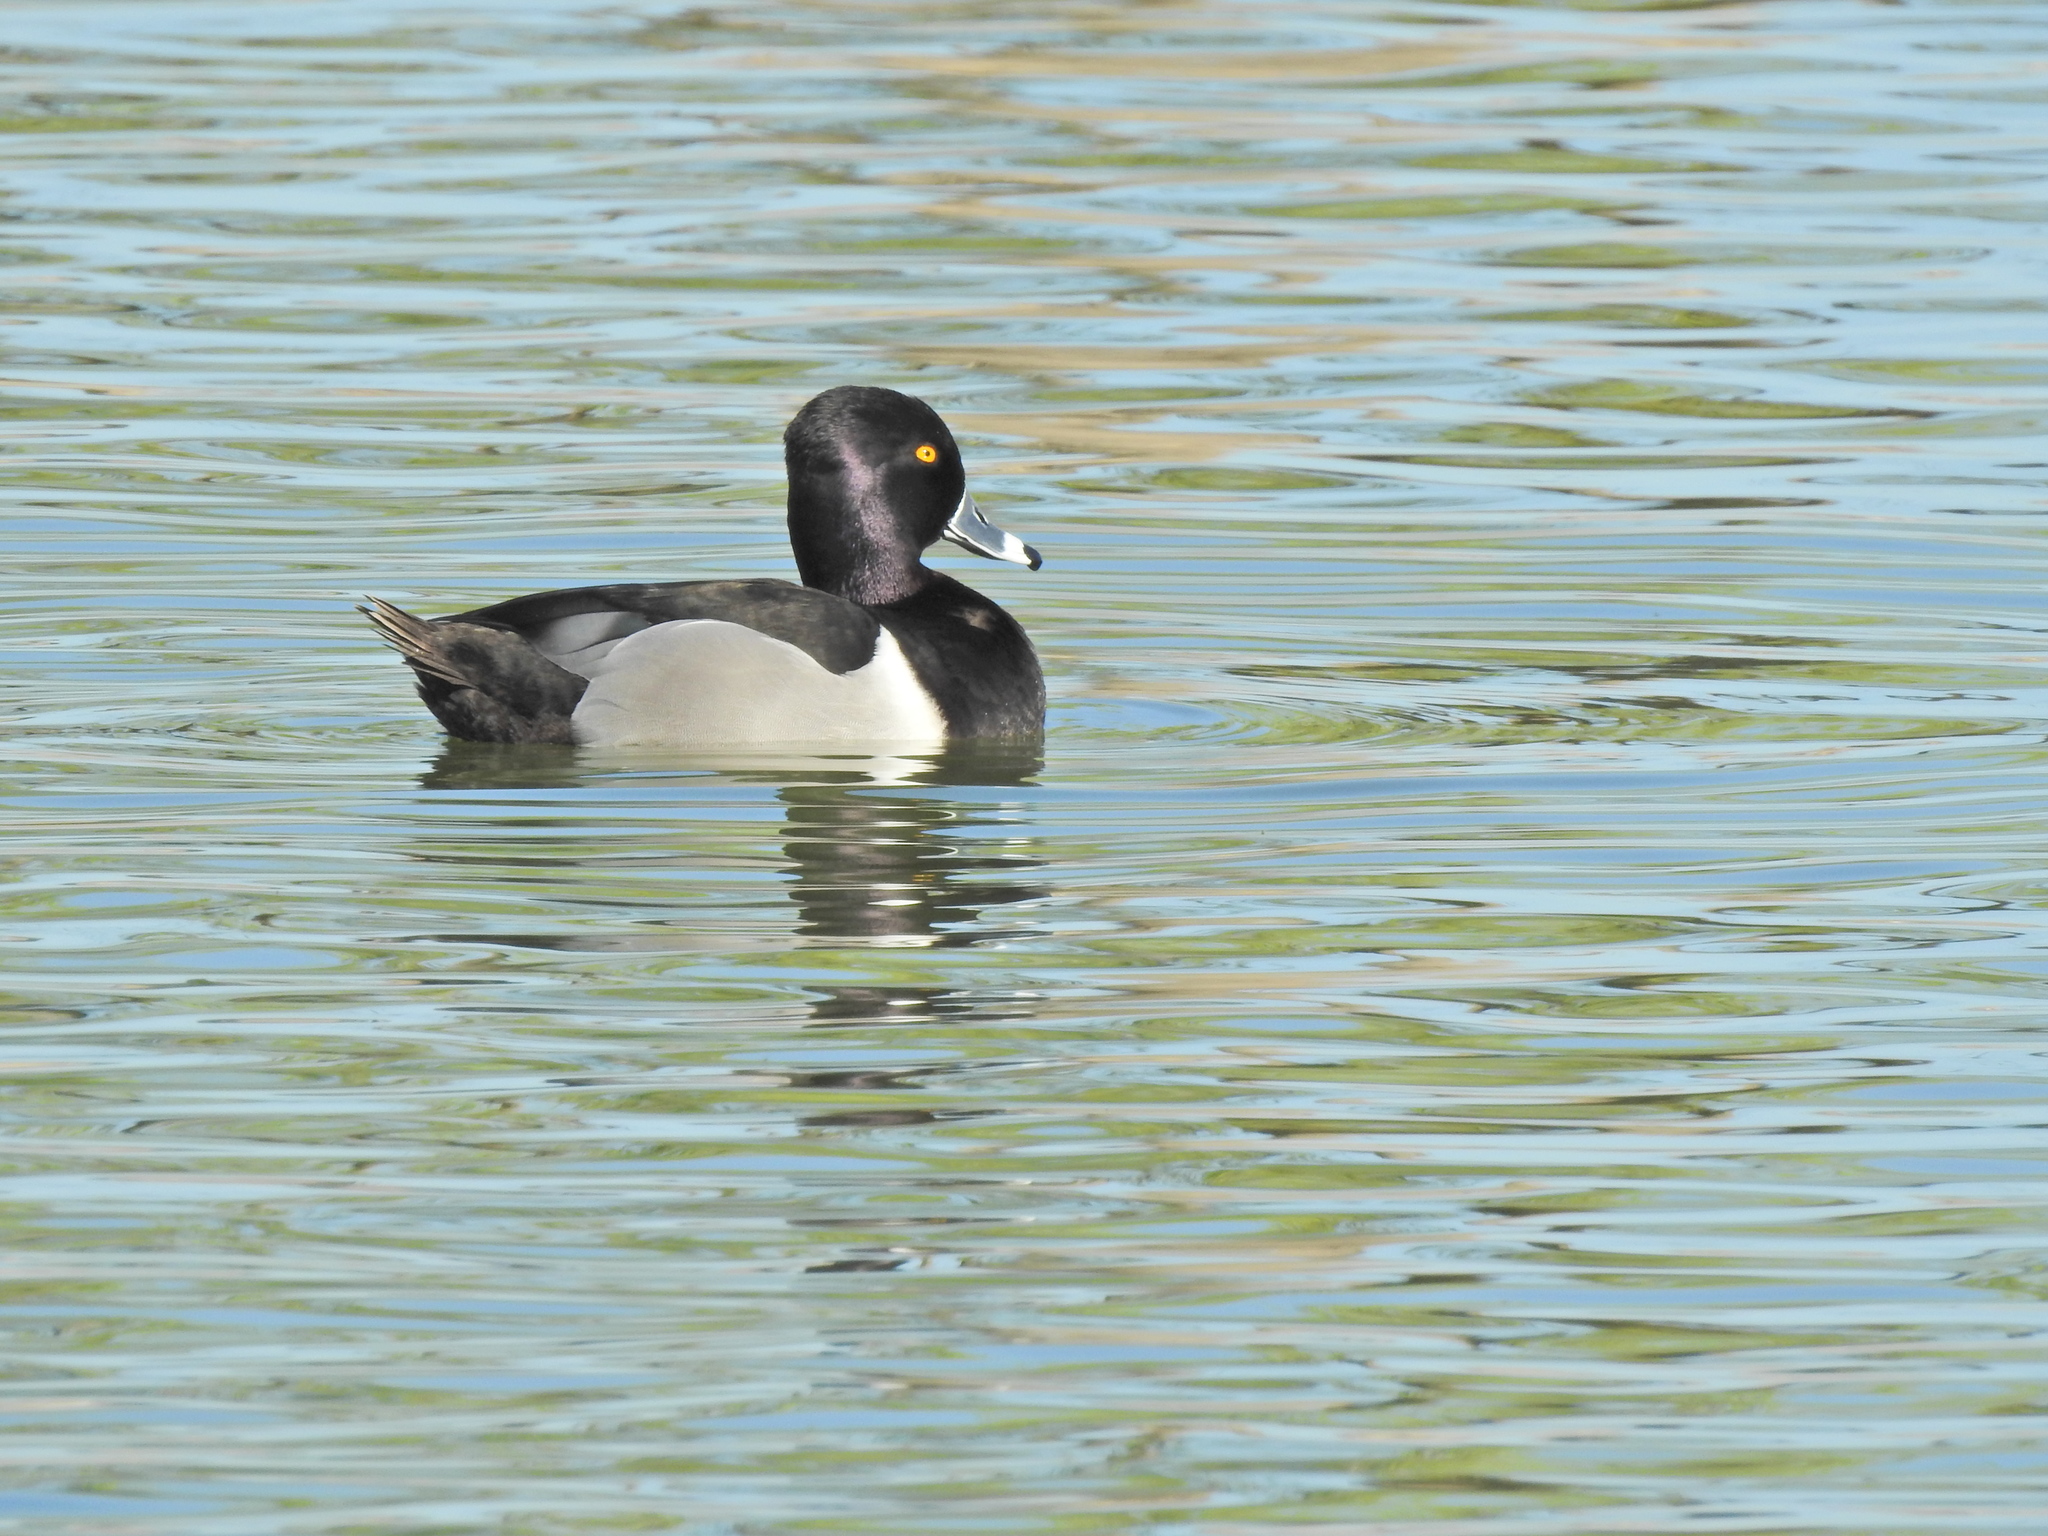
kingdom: Animalia
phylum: Chordata
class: Aves
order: Anseriformes
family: Anatidae
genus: Aythya
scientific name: Aythya collaris
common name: Ring-necked duck
